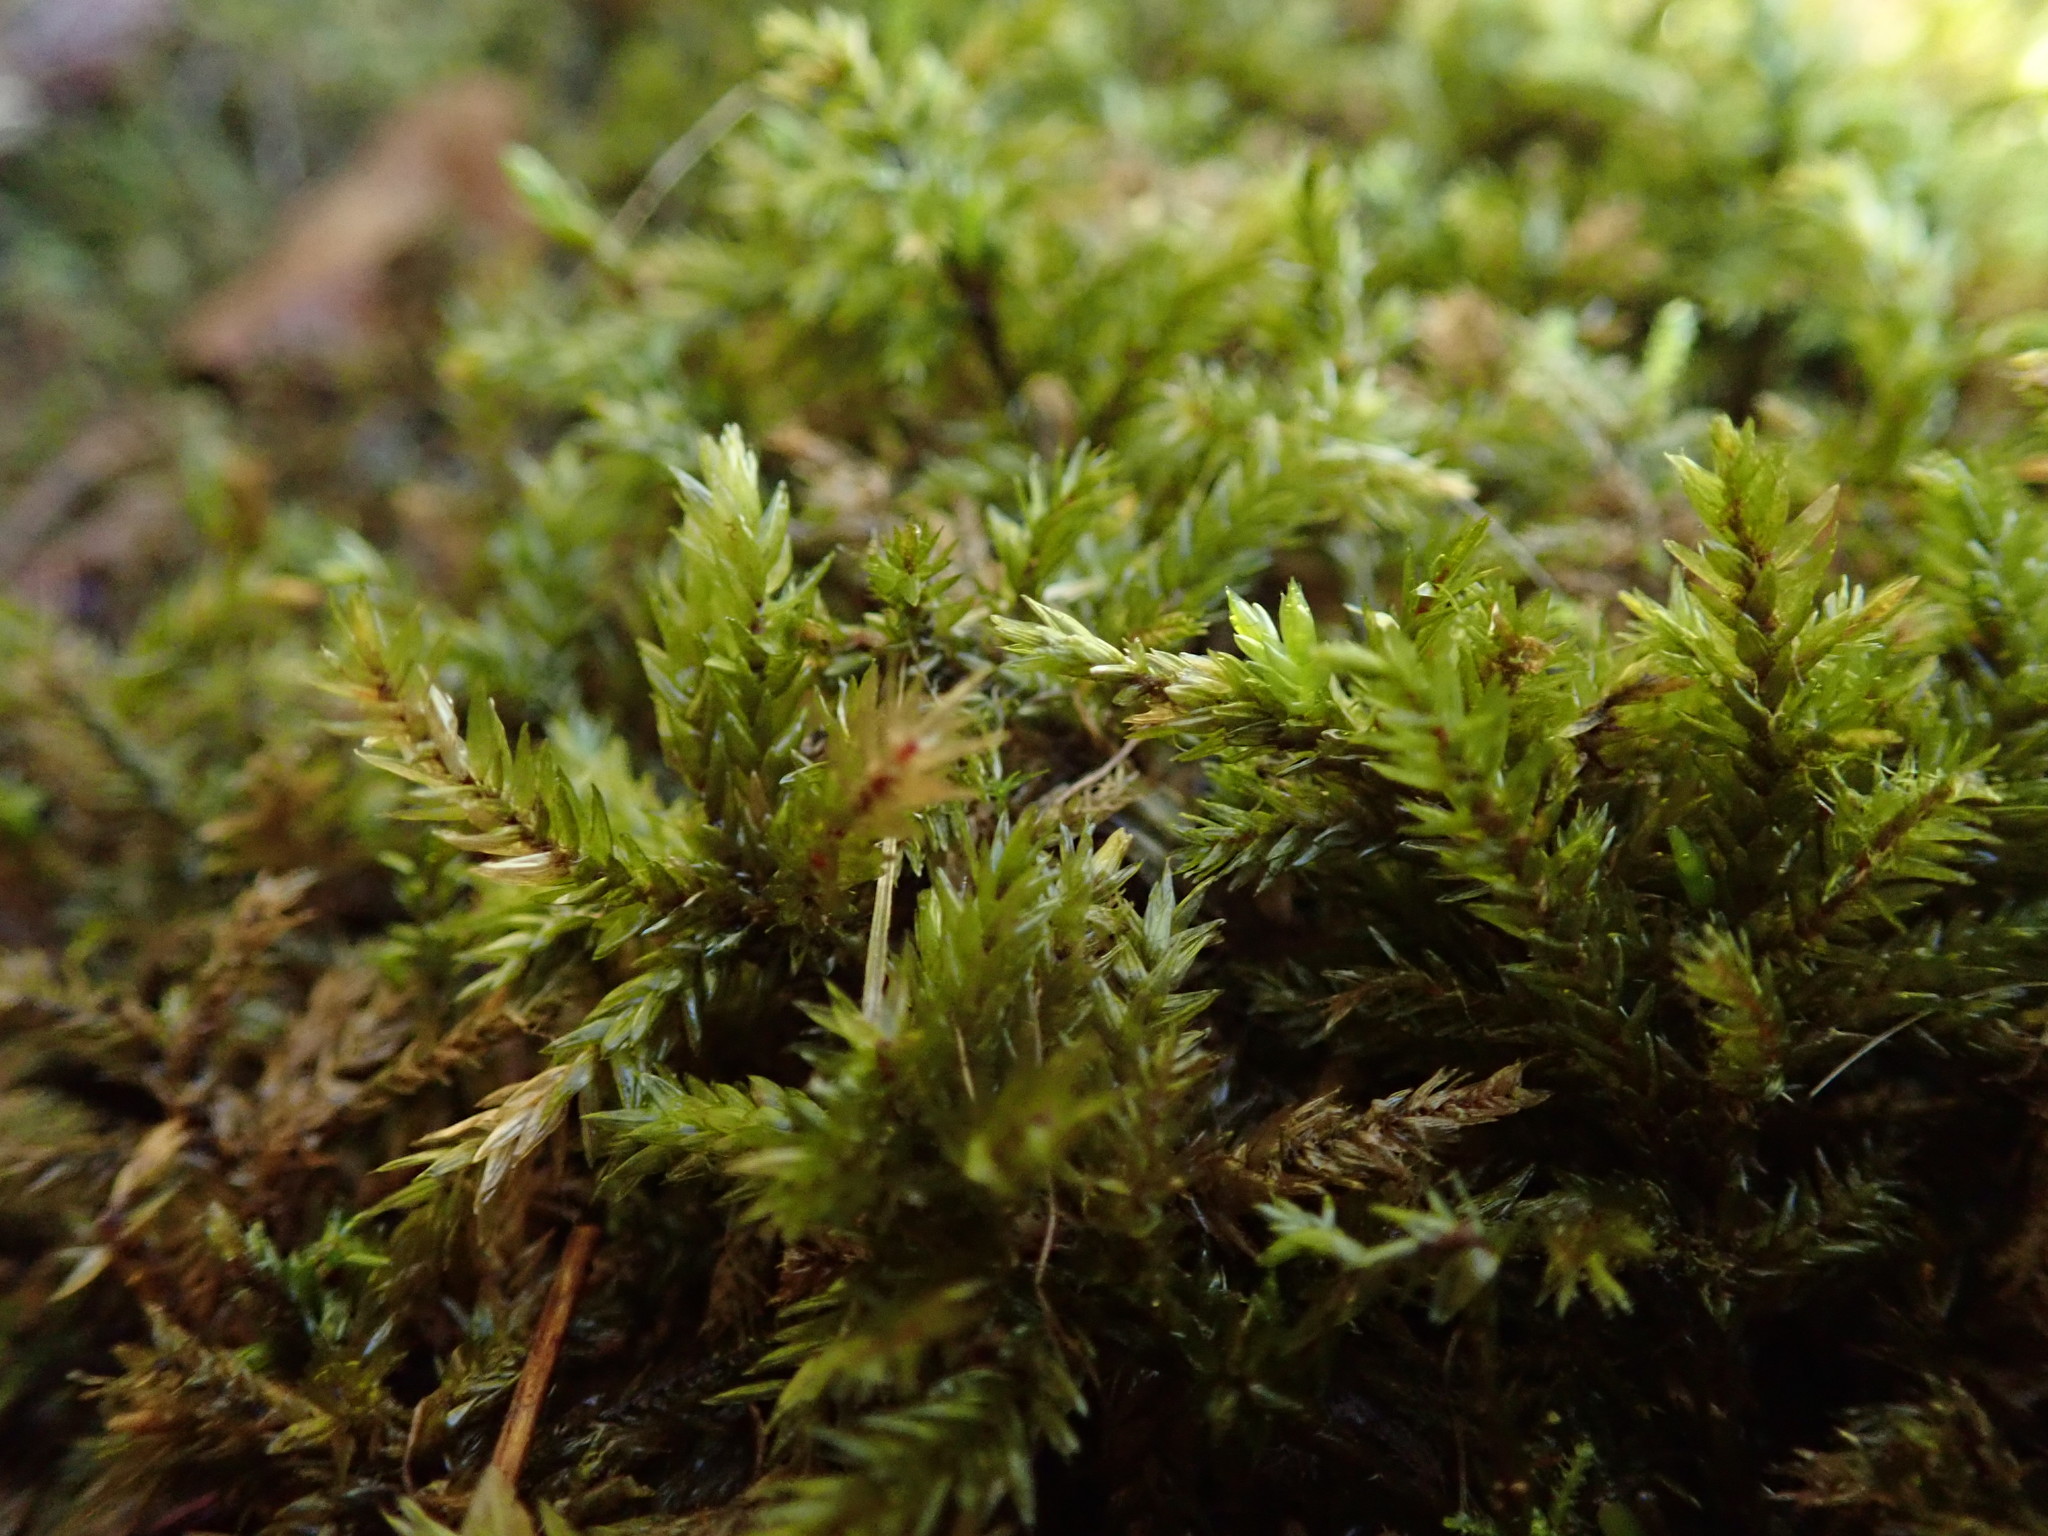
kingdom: Plantae
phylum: Bryophyta
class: Bryopsida
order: Hypnales
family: Climaciaceae
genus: Climacium
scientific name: Climacium dendroides
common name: Northern tree moss
